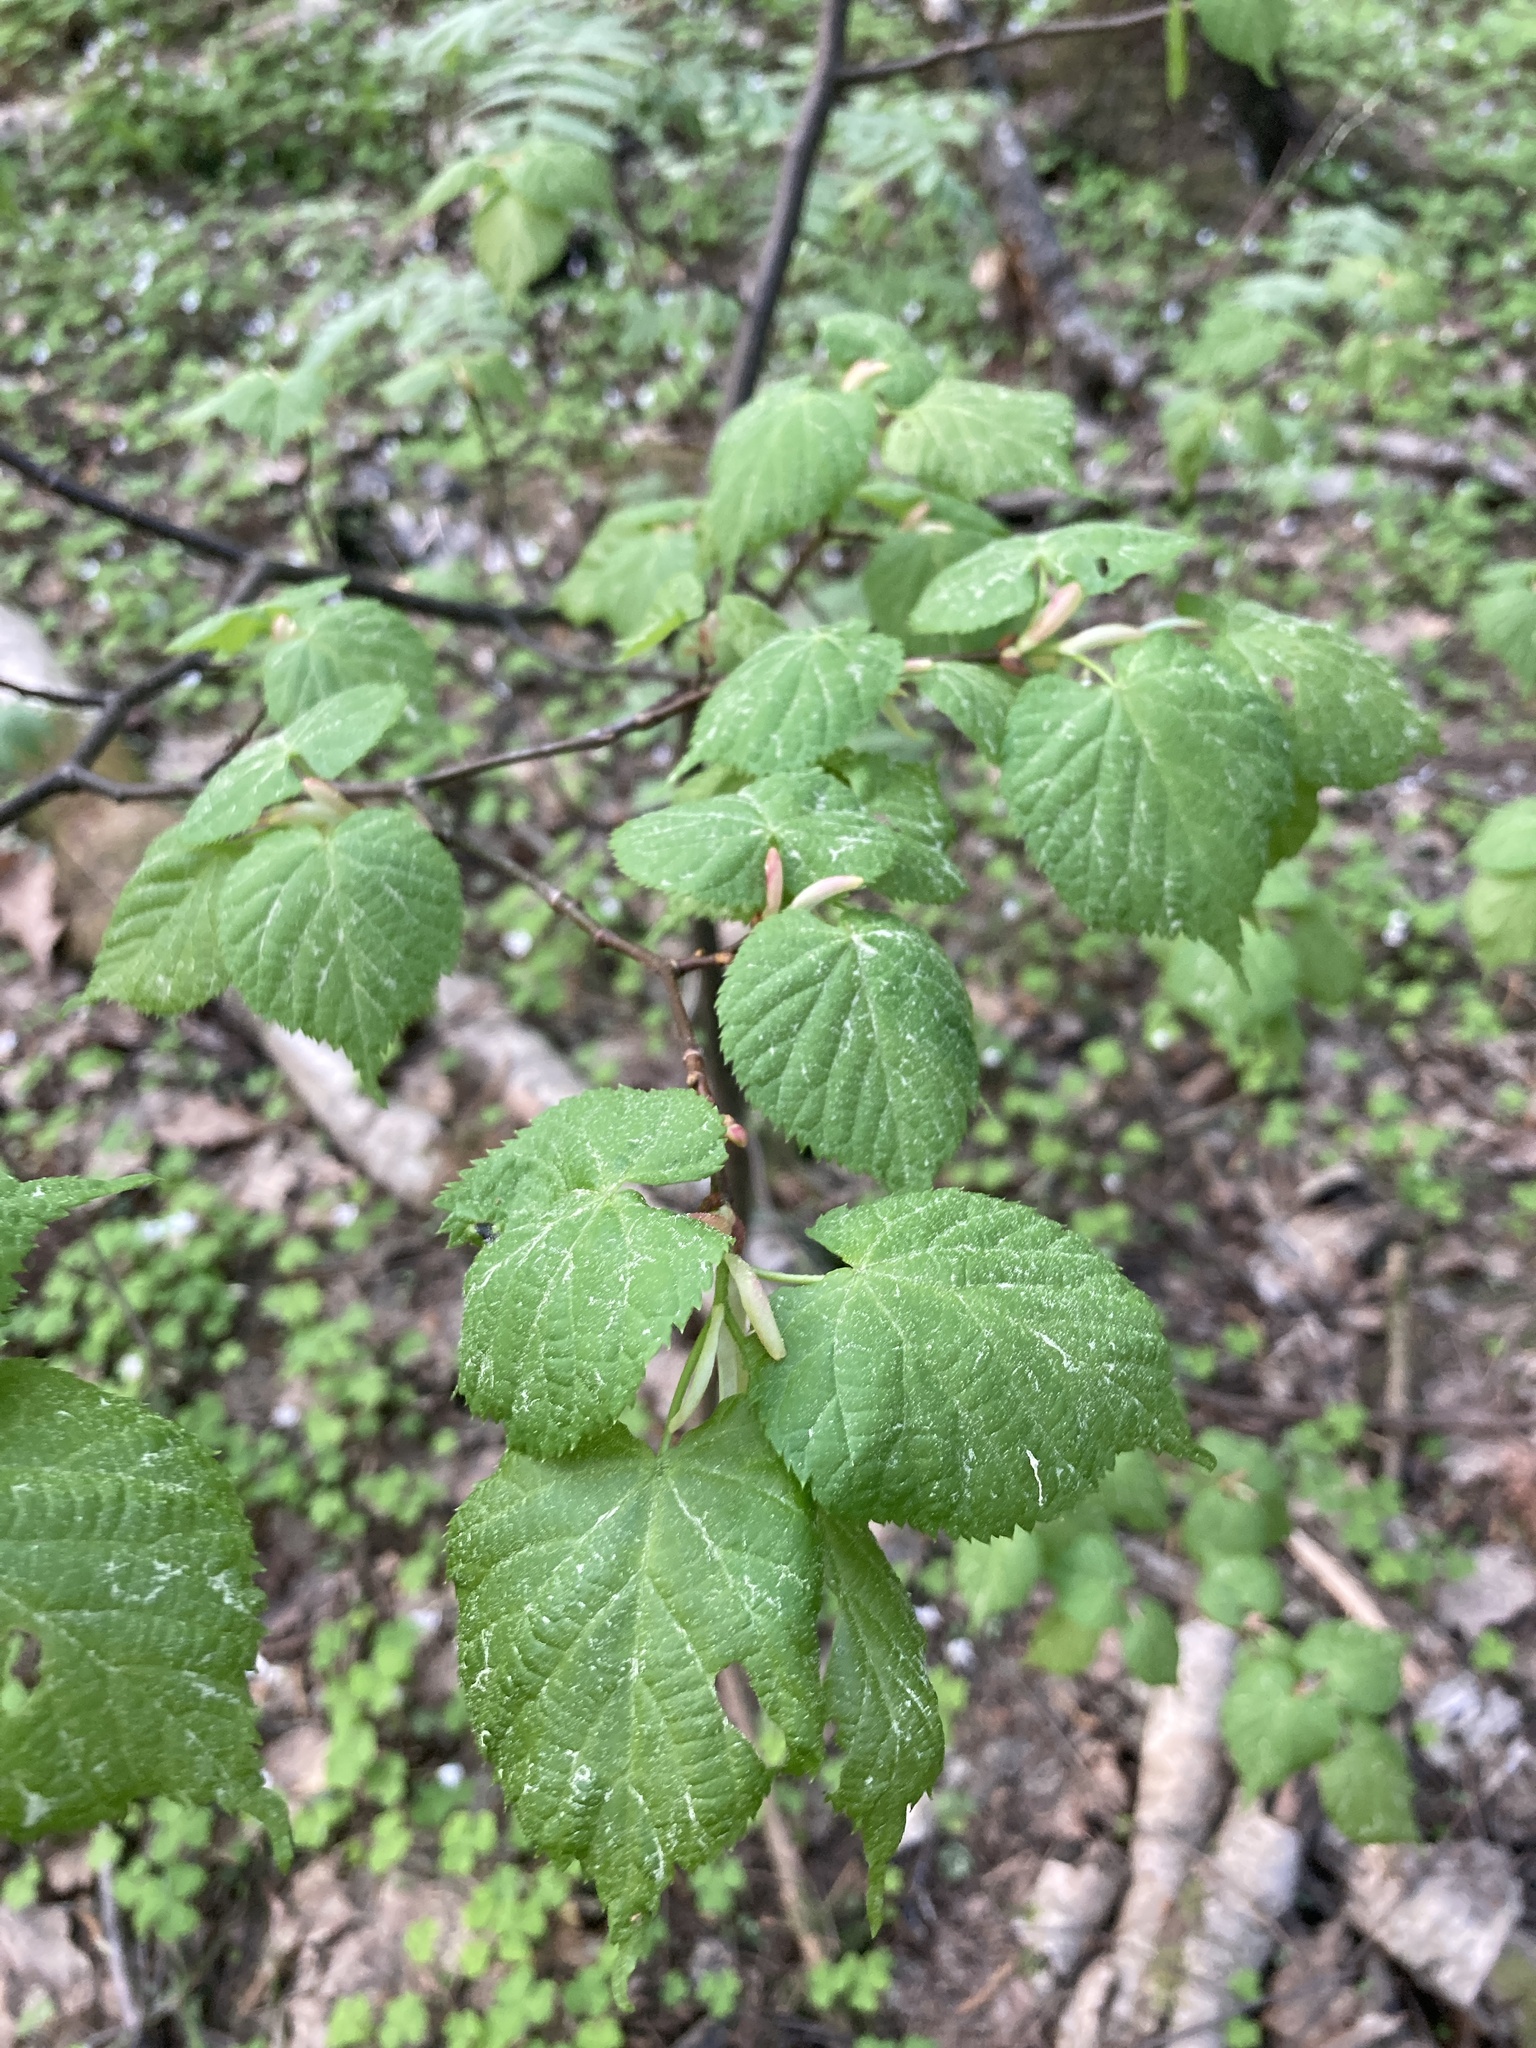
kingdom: Plantae
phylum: Tracheophyta
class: Magnoliopsida
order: Malvales
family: Malvaceae
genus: Tilia
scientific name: Tilia cordata
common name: Small-leaved lime
